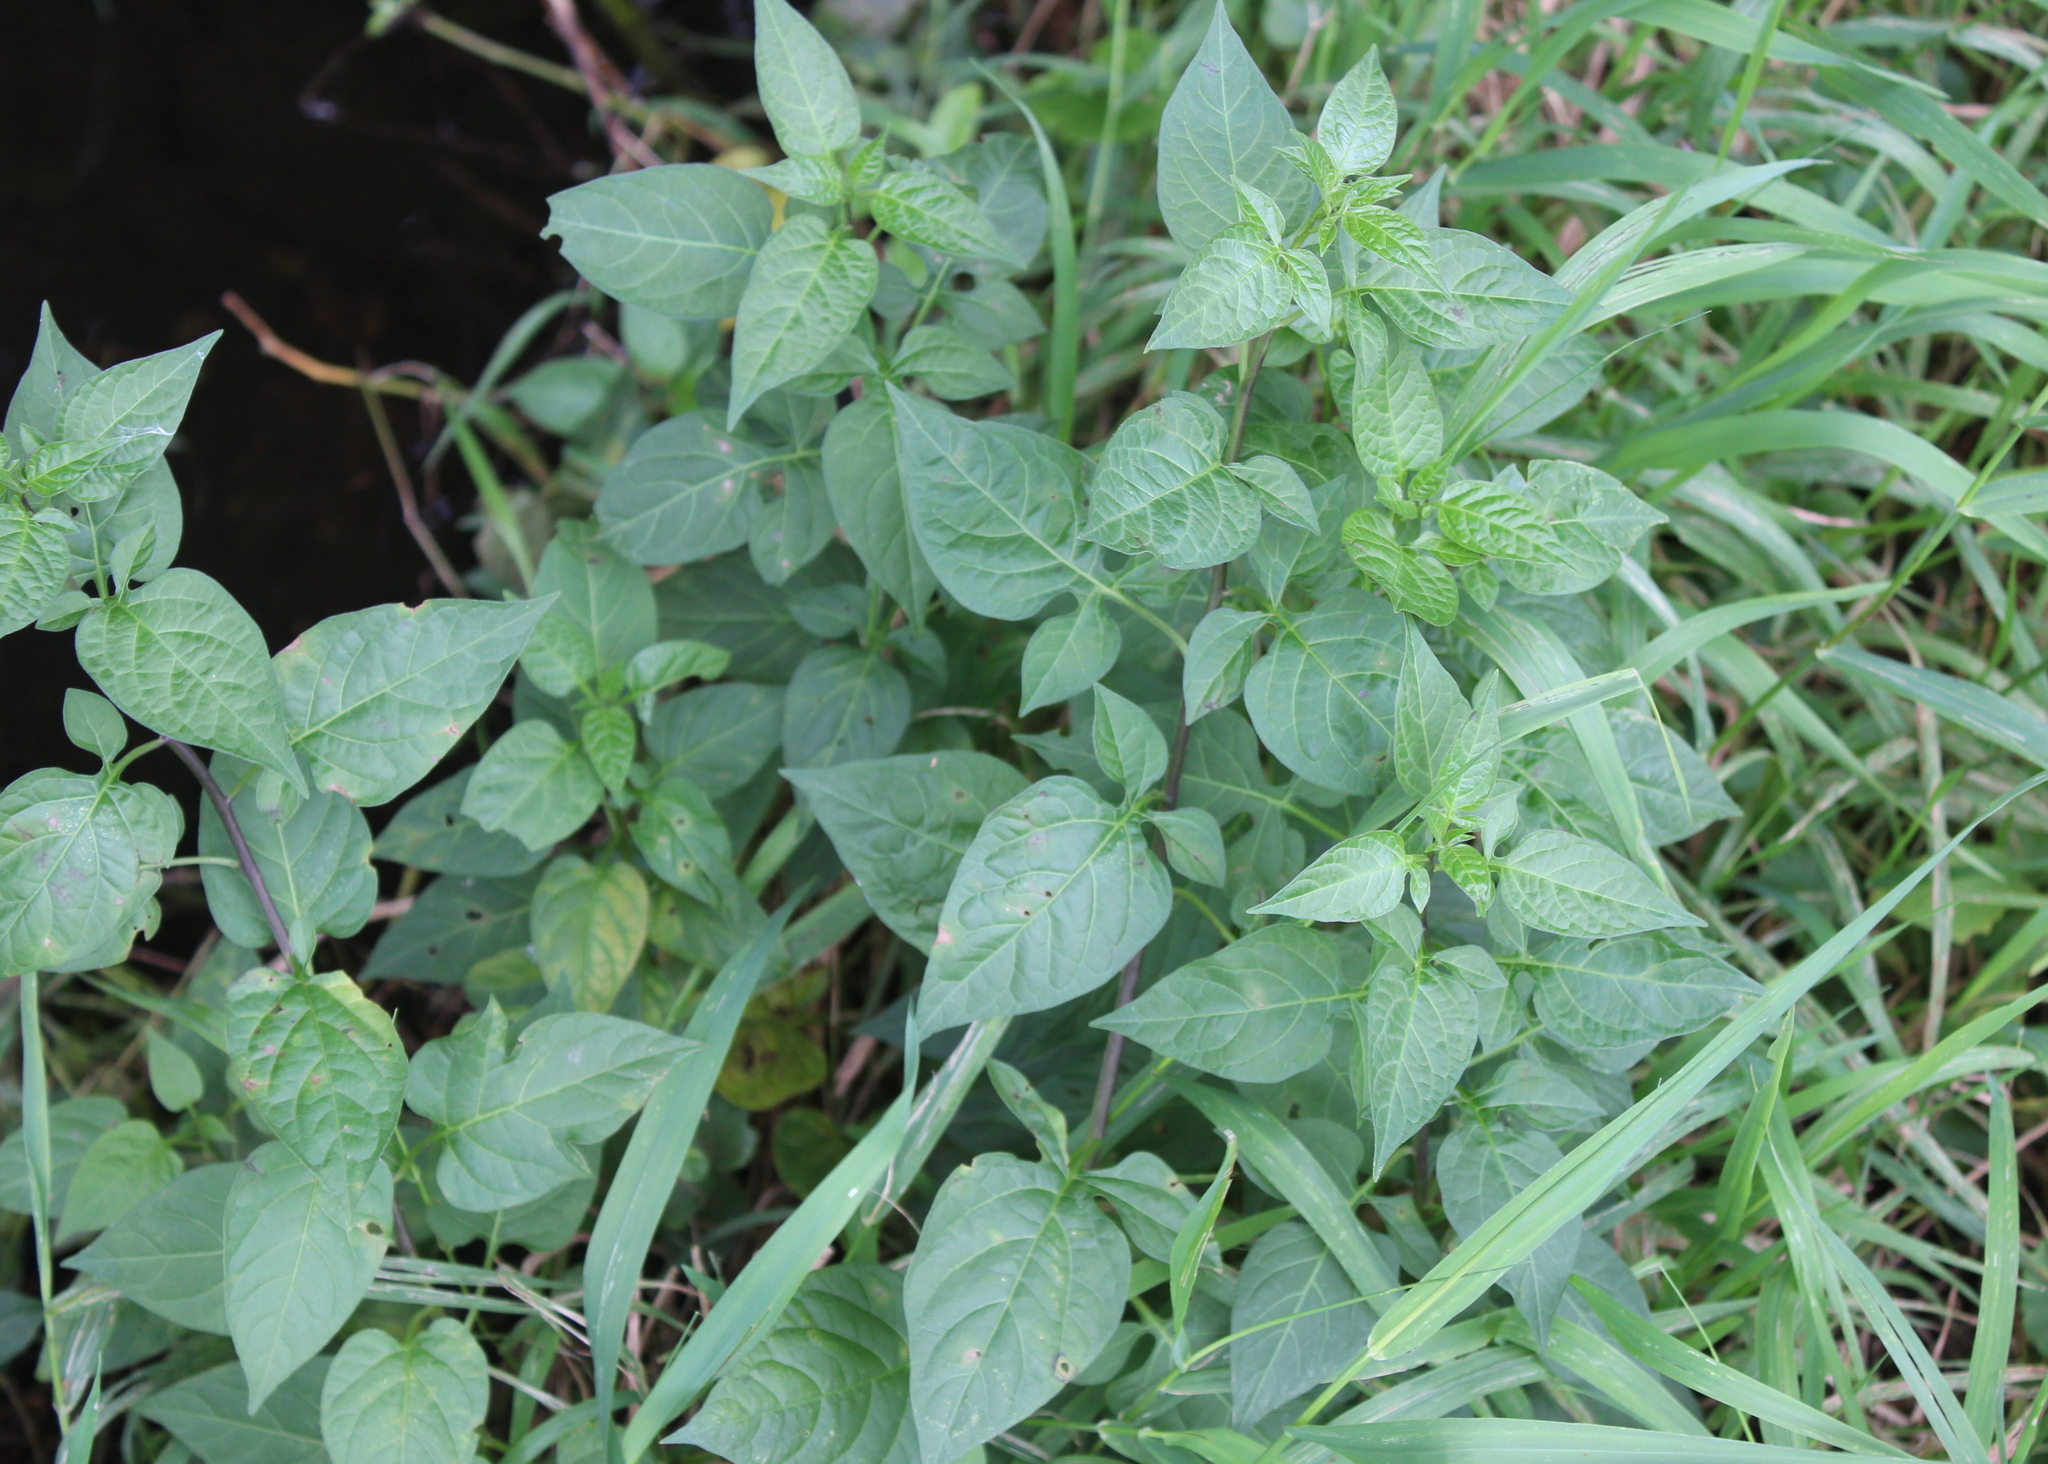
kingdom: Plantae
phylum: Tracheophyta
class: Magnoliopsida
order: Solanales
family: Solanaceae
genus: Solanum
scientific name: Solanum dulcamara
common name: Climbing nightshade
